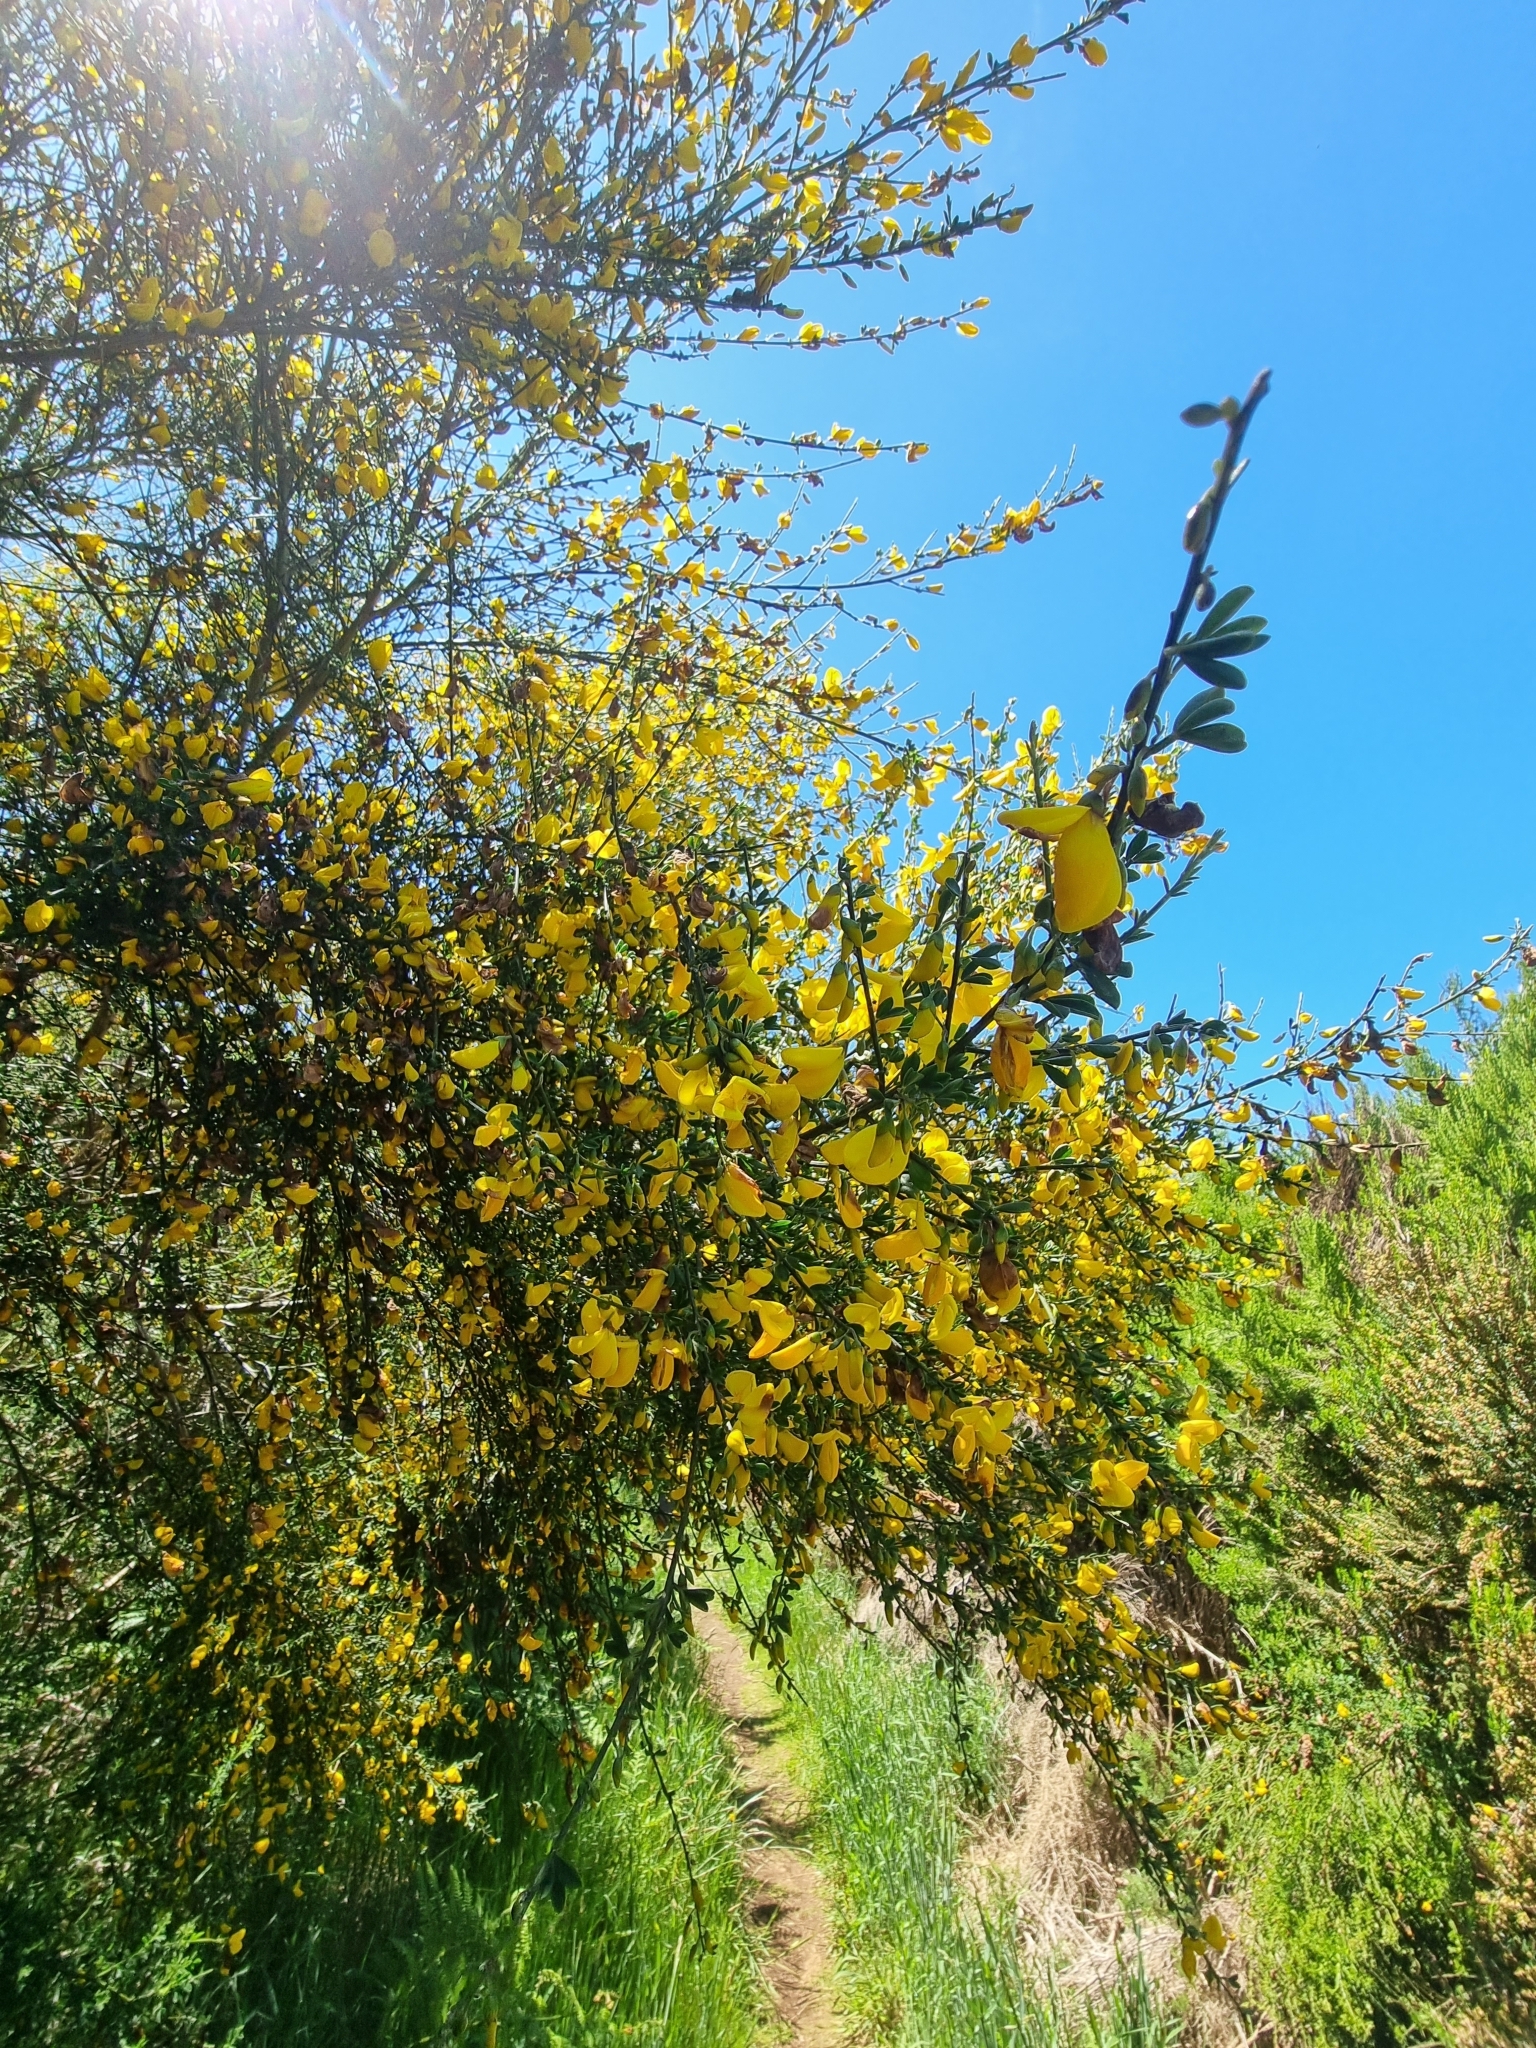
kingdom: Plantae
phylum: Tracheophyta
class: Magnoliopsida
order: Fabales
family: Fabaceae
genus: Cytisus
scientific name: Cytisus scoparius
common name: Scotch broom
